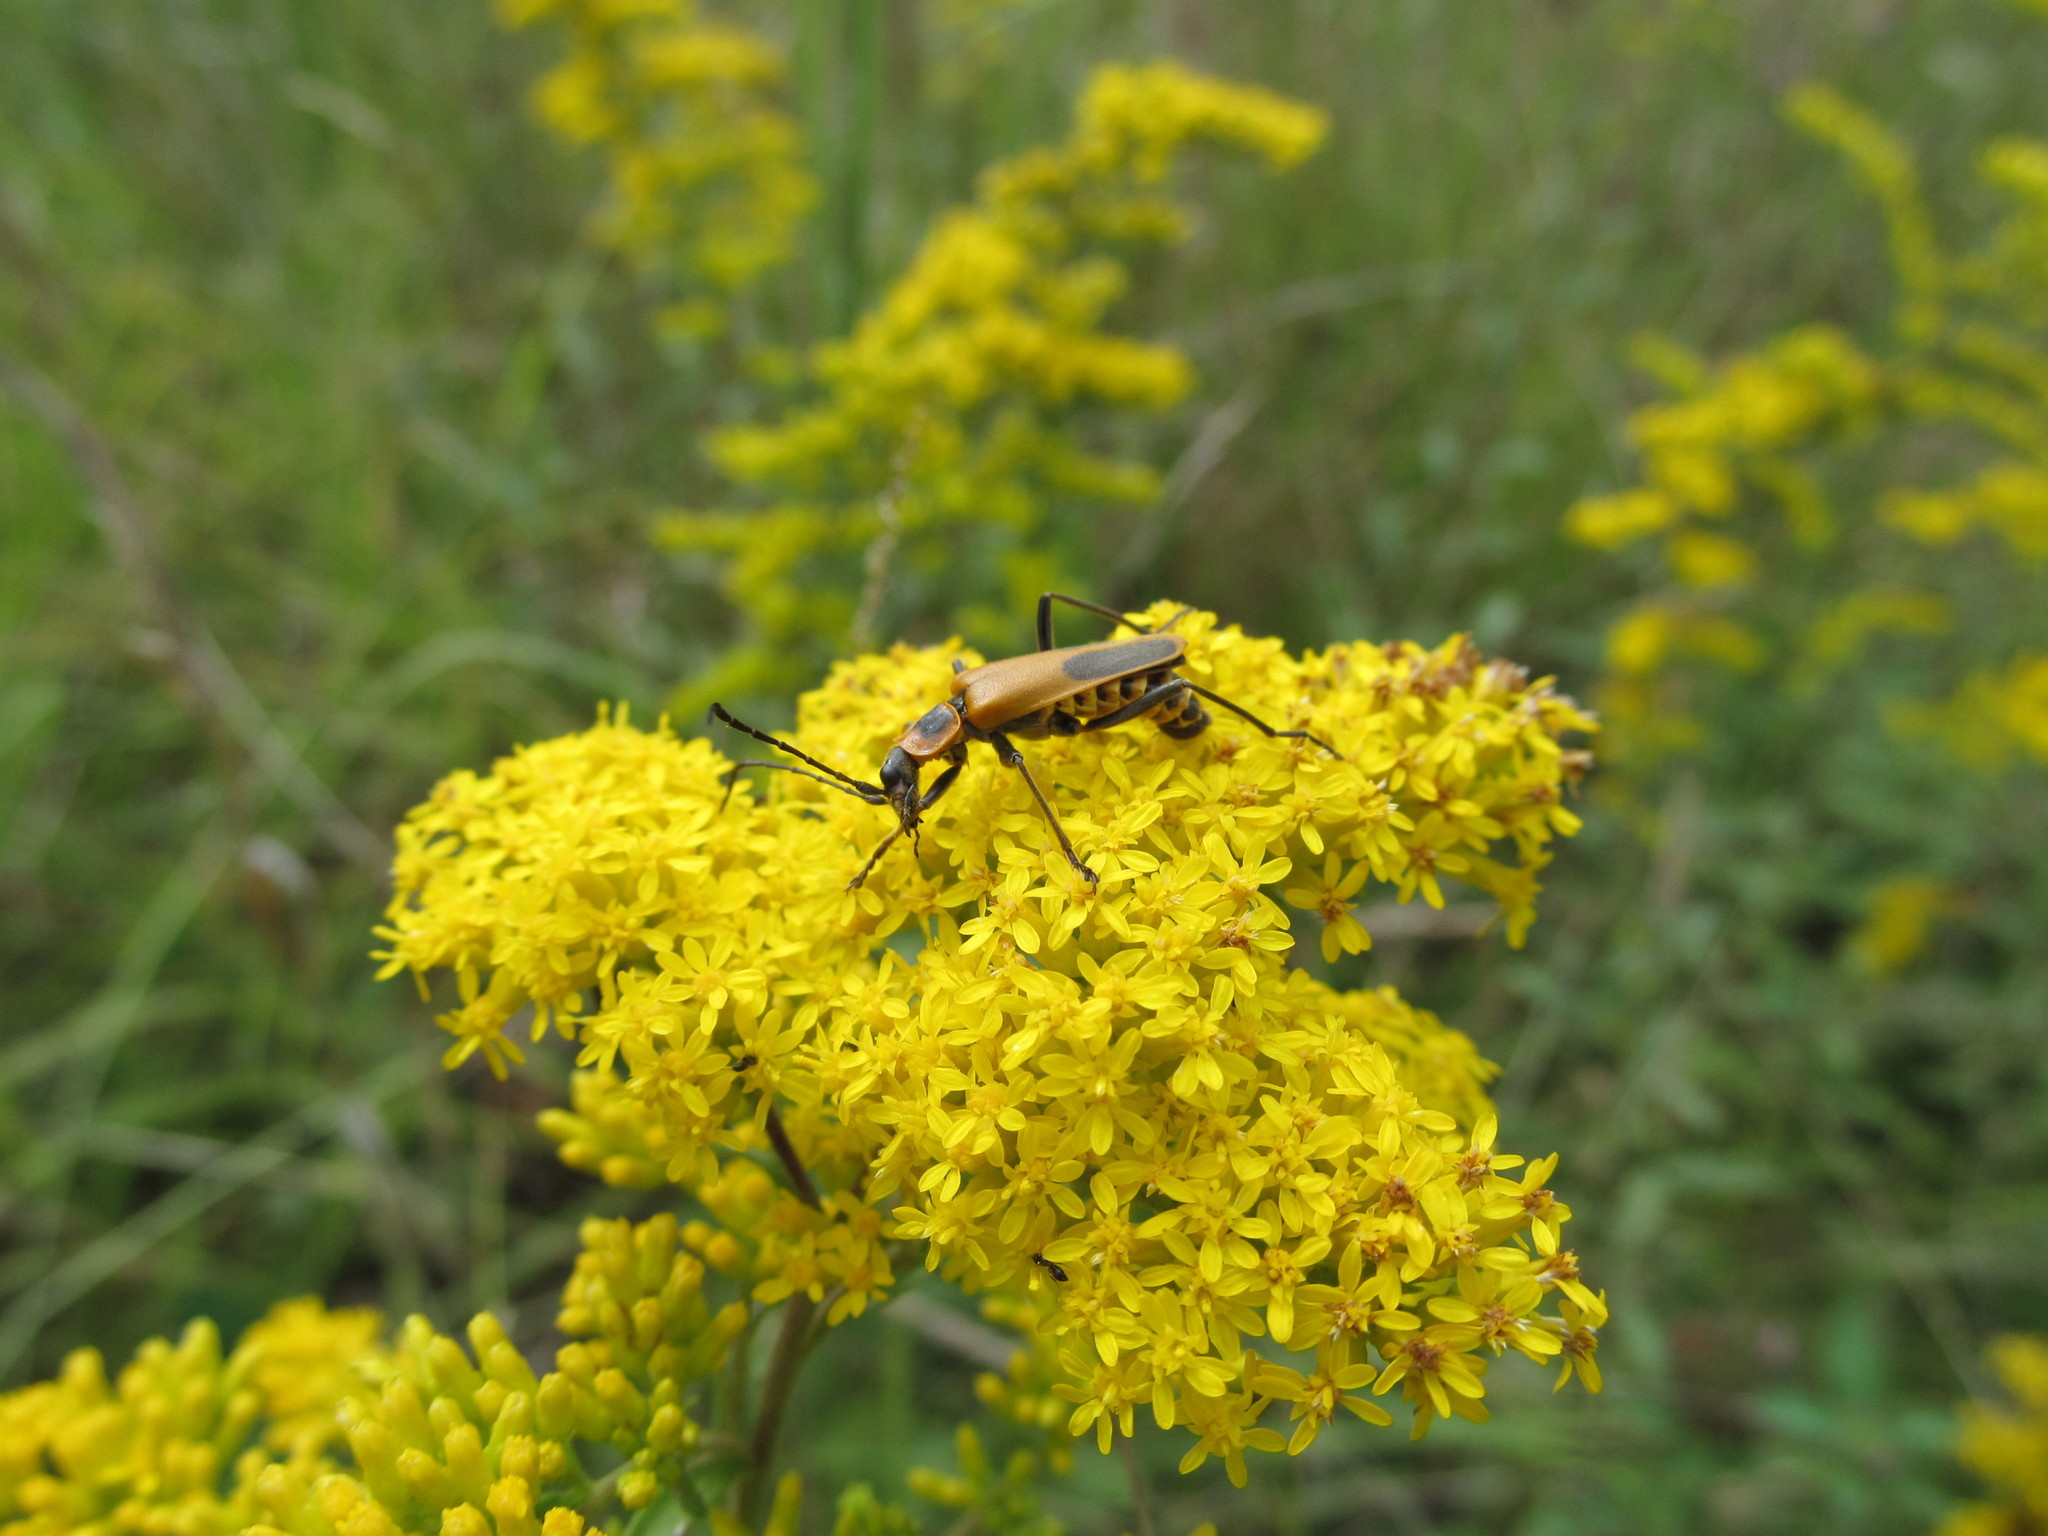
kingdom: Animalia
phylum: Arthropoda
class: Insecta
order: Coleoptera
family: Cantharidae
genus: Chauliognathus
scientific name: Chauliognathus pensylvanicus
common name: Goldenrod soldier beetle
